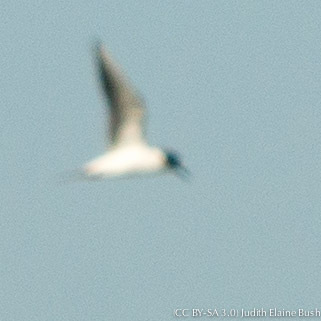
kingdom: Animalia
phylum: Chordata
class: Aves
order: Charadriiformes
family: Laridae
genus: Chroicocephalus
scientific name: Chroicocephalus philadelphia
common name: Bonaparte's gull
